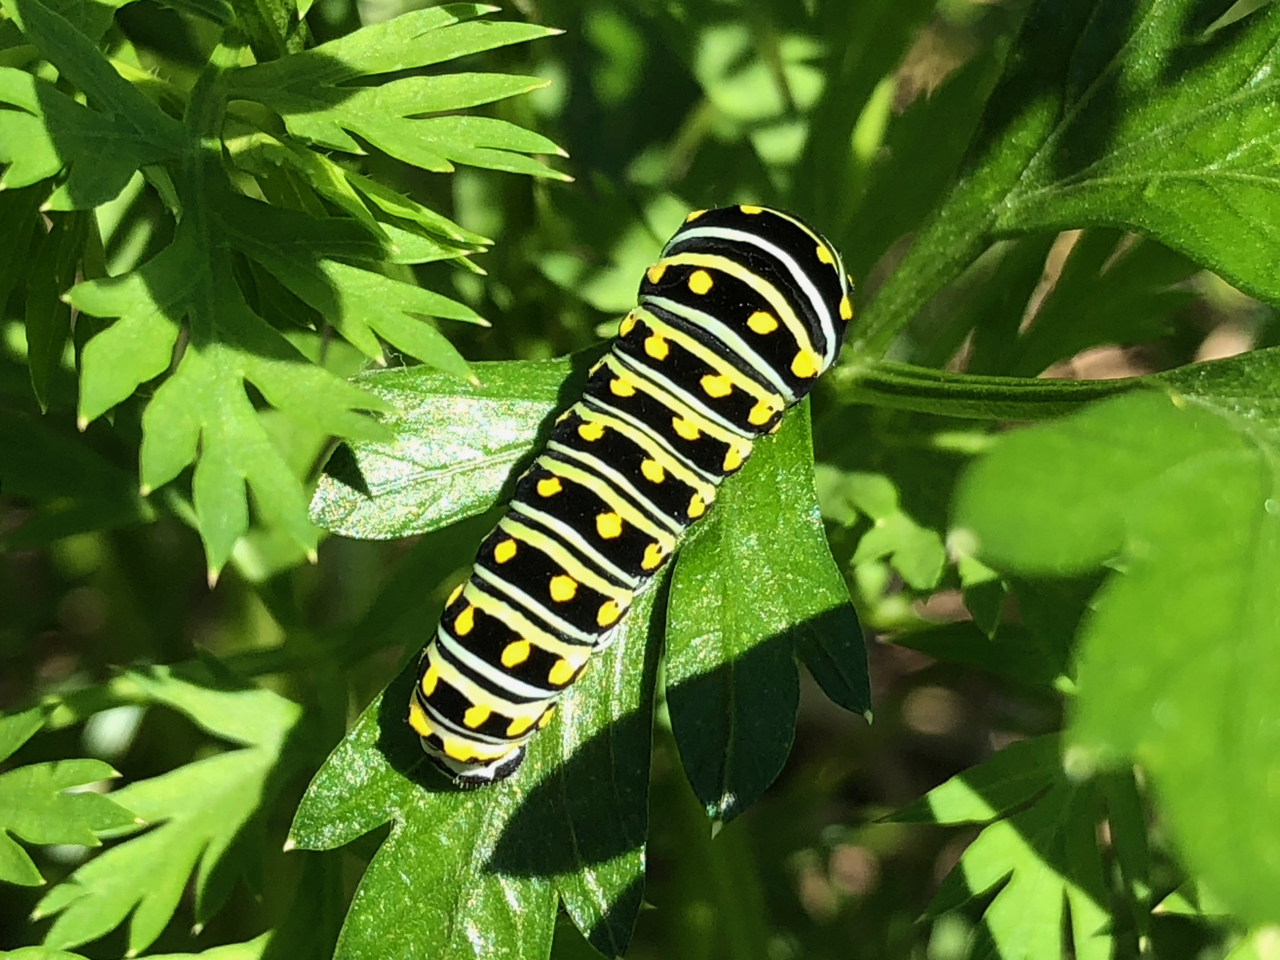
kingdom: Animalia
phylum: Arthropoda
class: Insecta
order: Lepidoptera
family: Papilionidae
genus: Papilio
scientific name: Papilio polyxenes
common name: Black swallowtail
